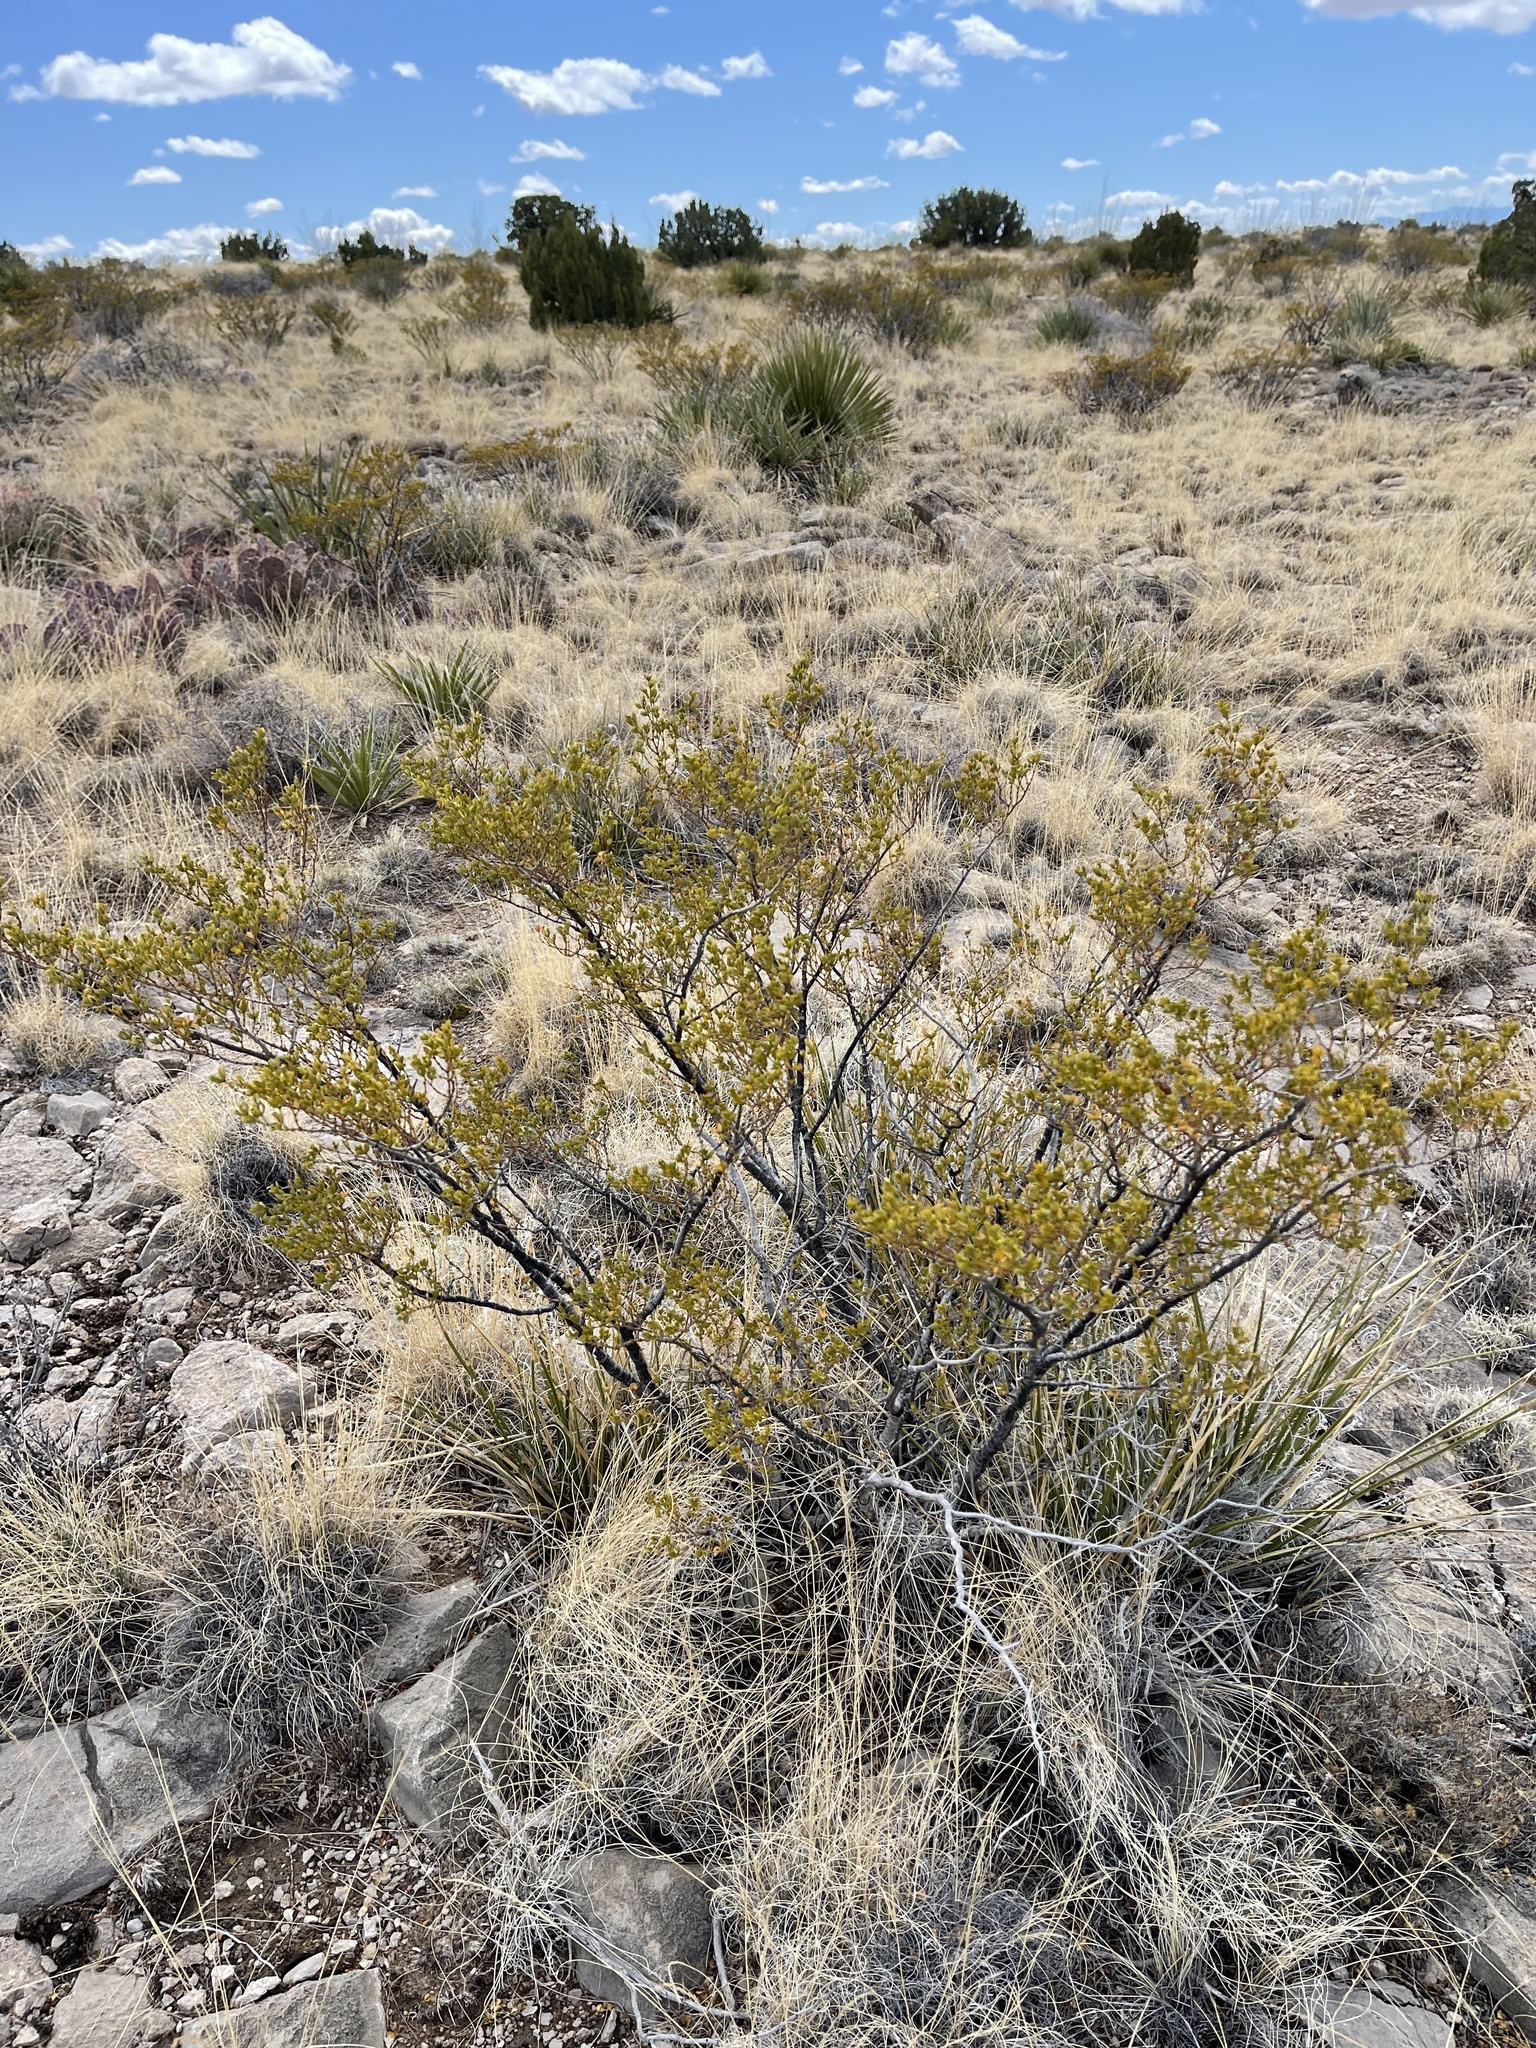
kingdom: Plantae
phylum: Tracheophyta
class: Magnoliopsida
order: Zygophyllales
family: Zygophyllaceae
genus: Larrea
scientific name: Larrea tridentata
